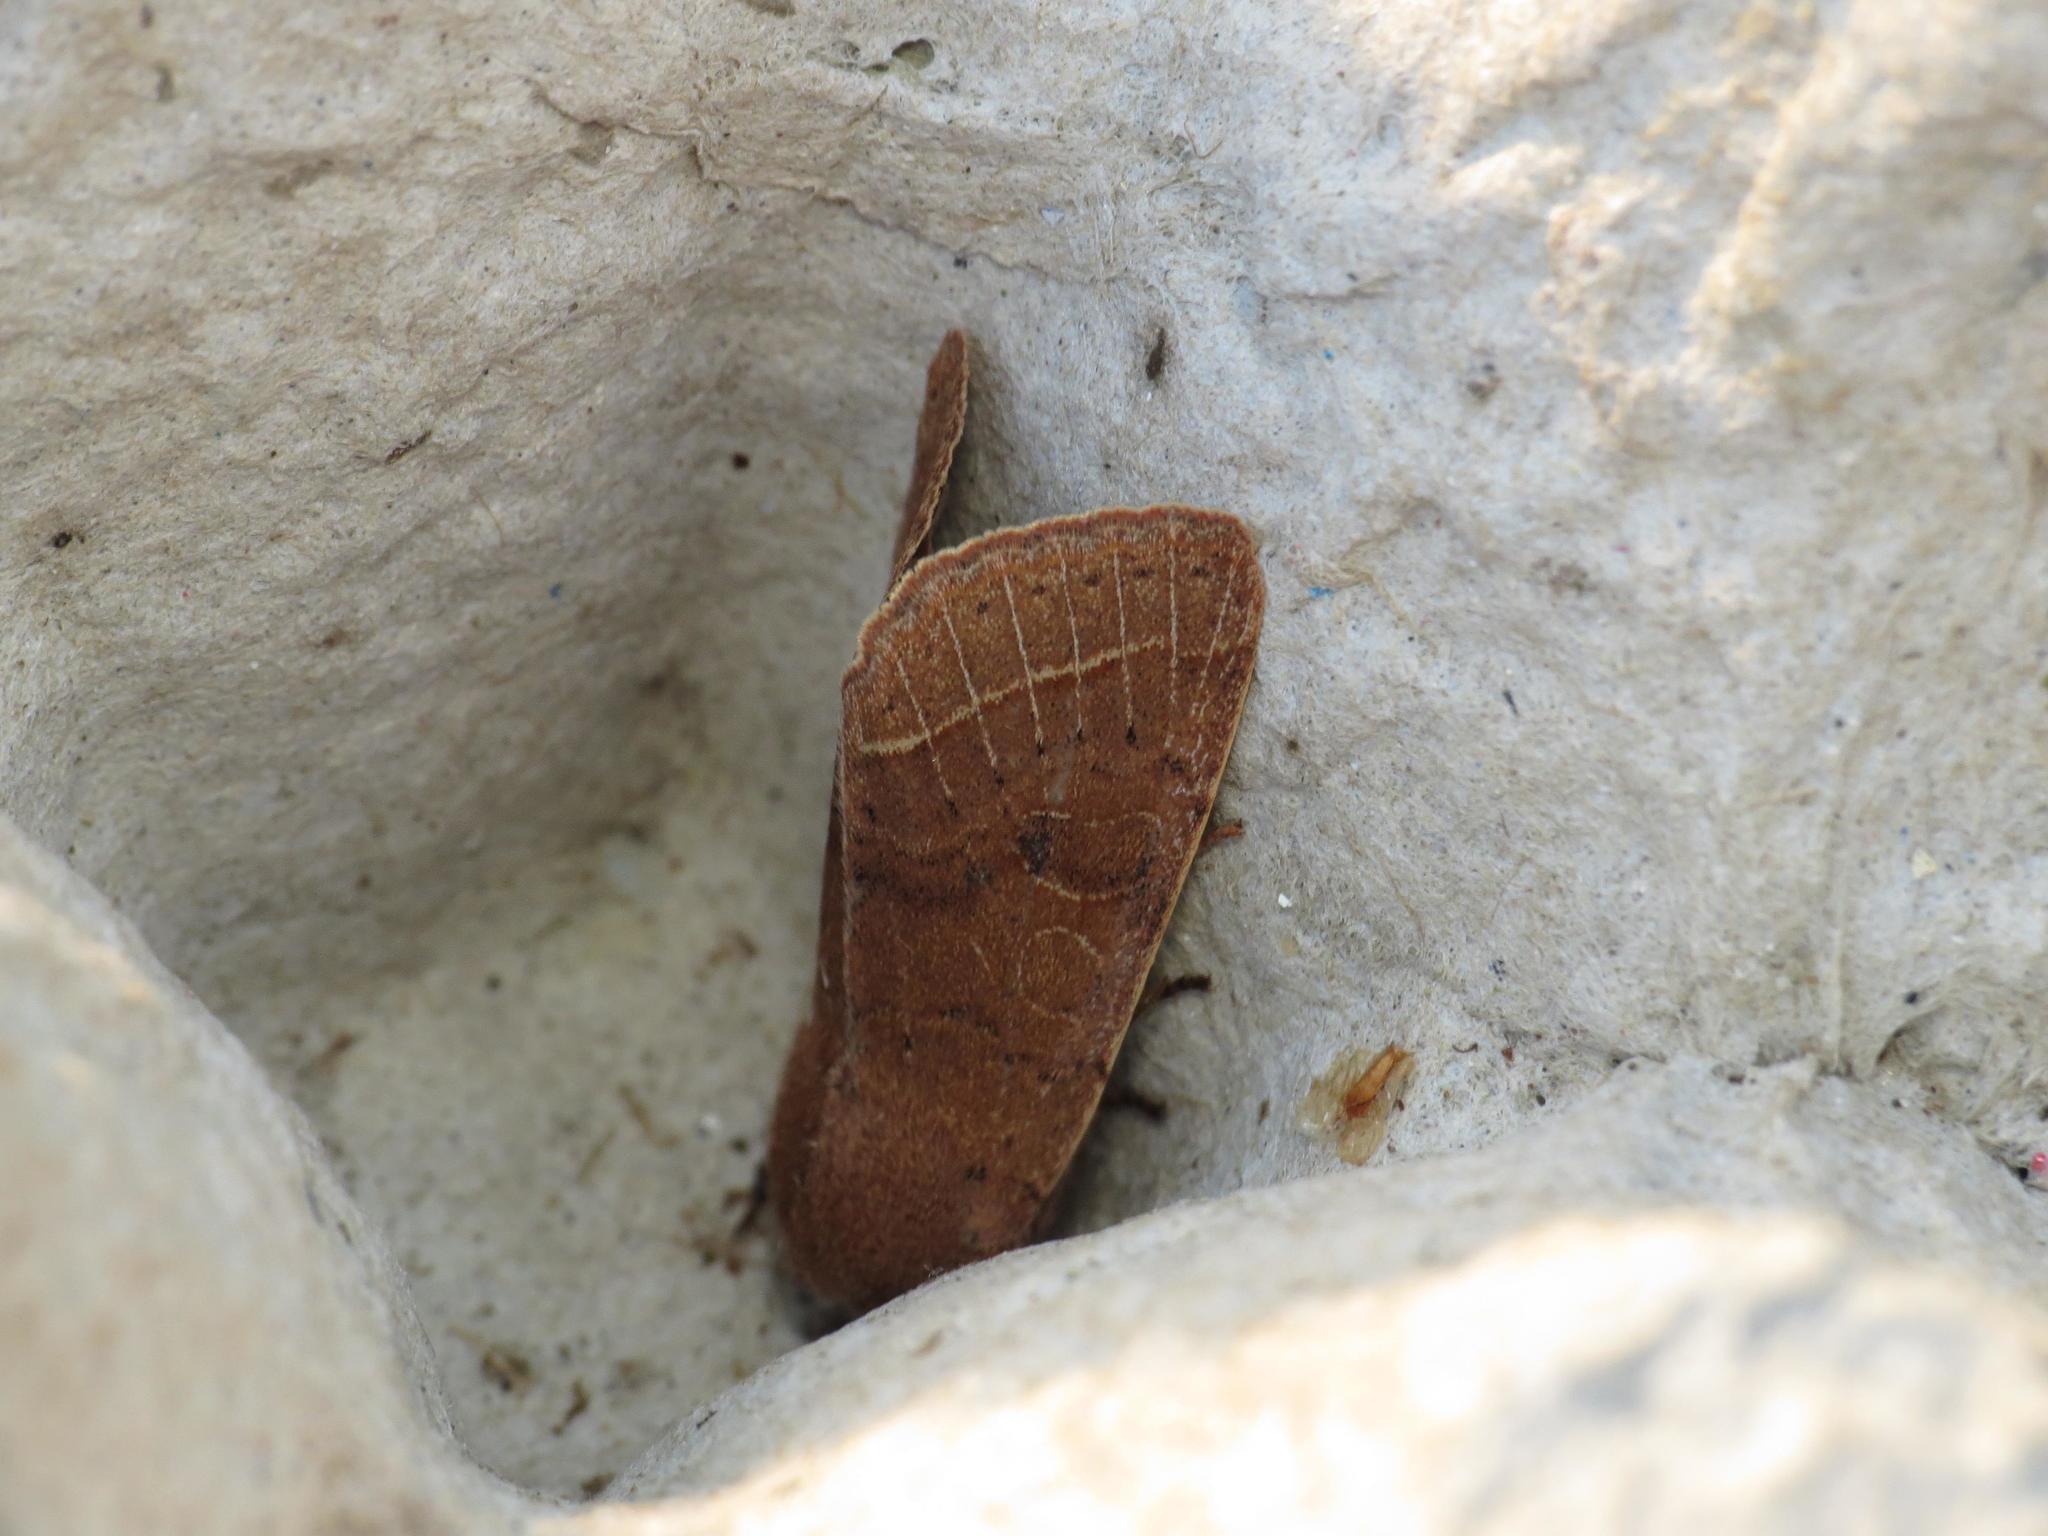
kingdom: Animalia
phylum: Arthropoda
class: Insecta
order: Lepidoptera
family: Noctuidae
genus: Orthosia
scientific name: Orthosia cerasi
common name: Common quaker
